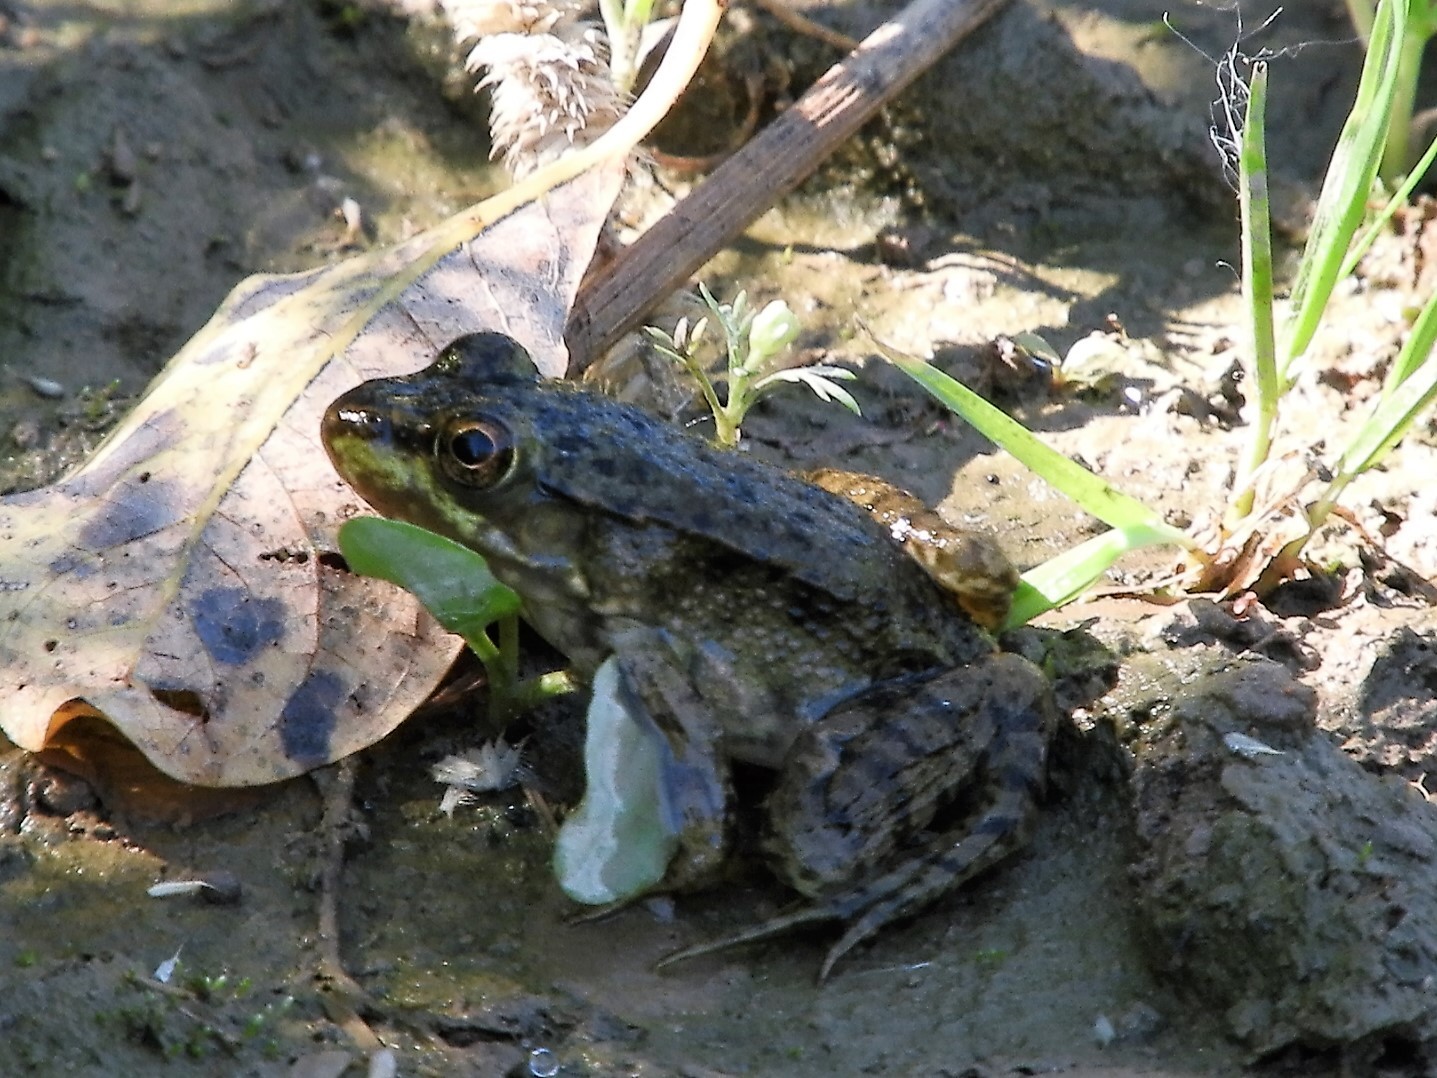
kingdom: Animalia
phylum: Chordata
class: Amphibia
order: Anura
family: Ranidae
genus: Lithobates
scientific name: Lithobates clamitans
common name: Green frog
